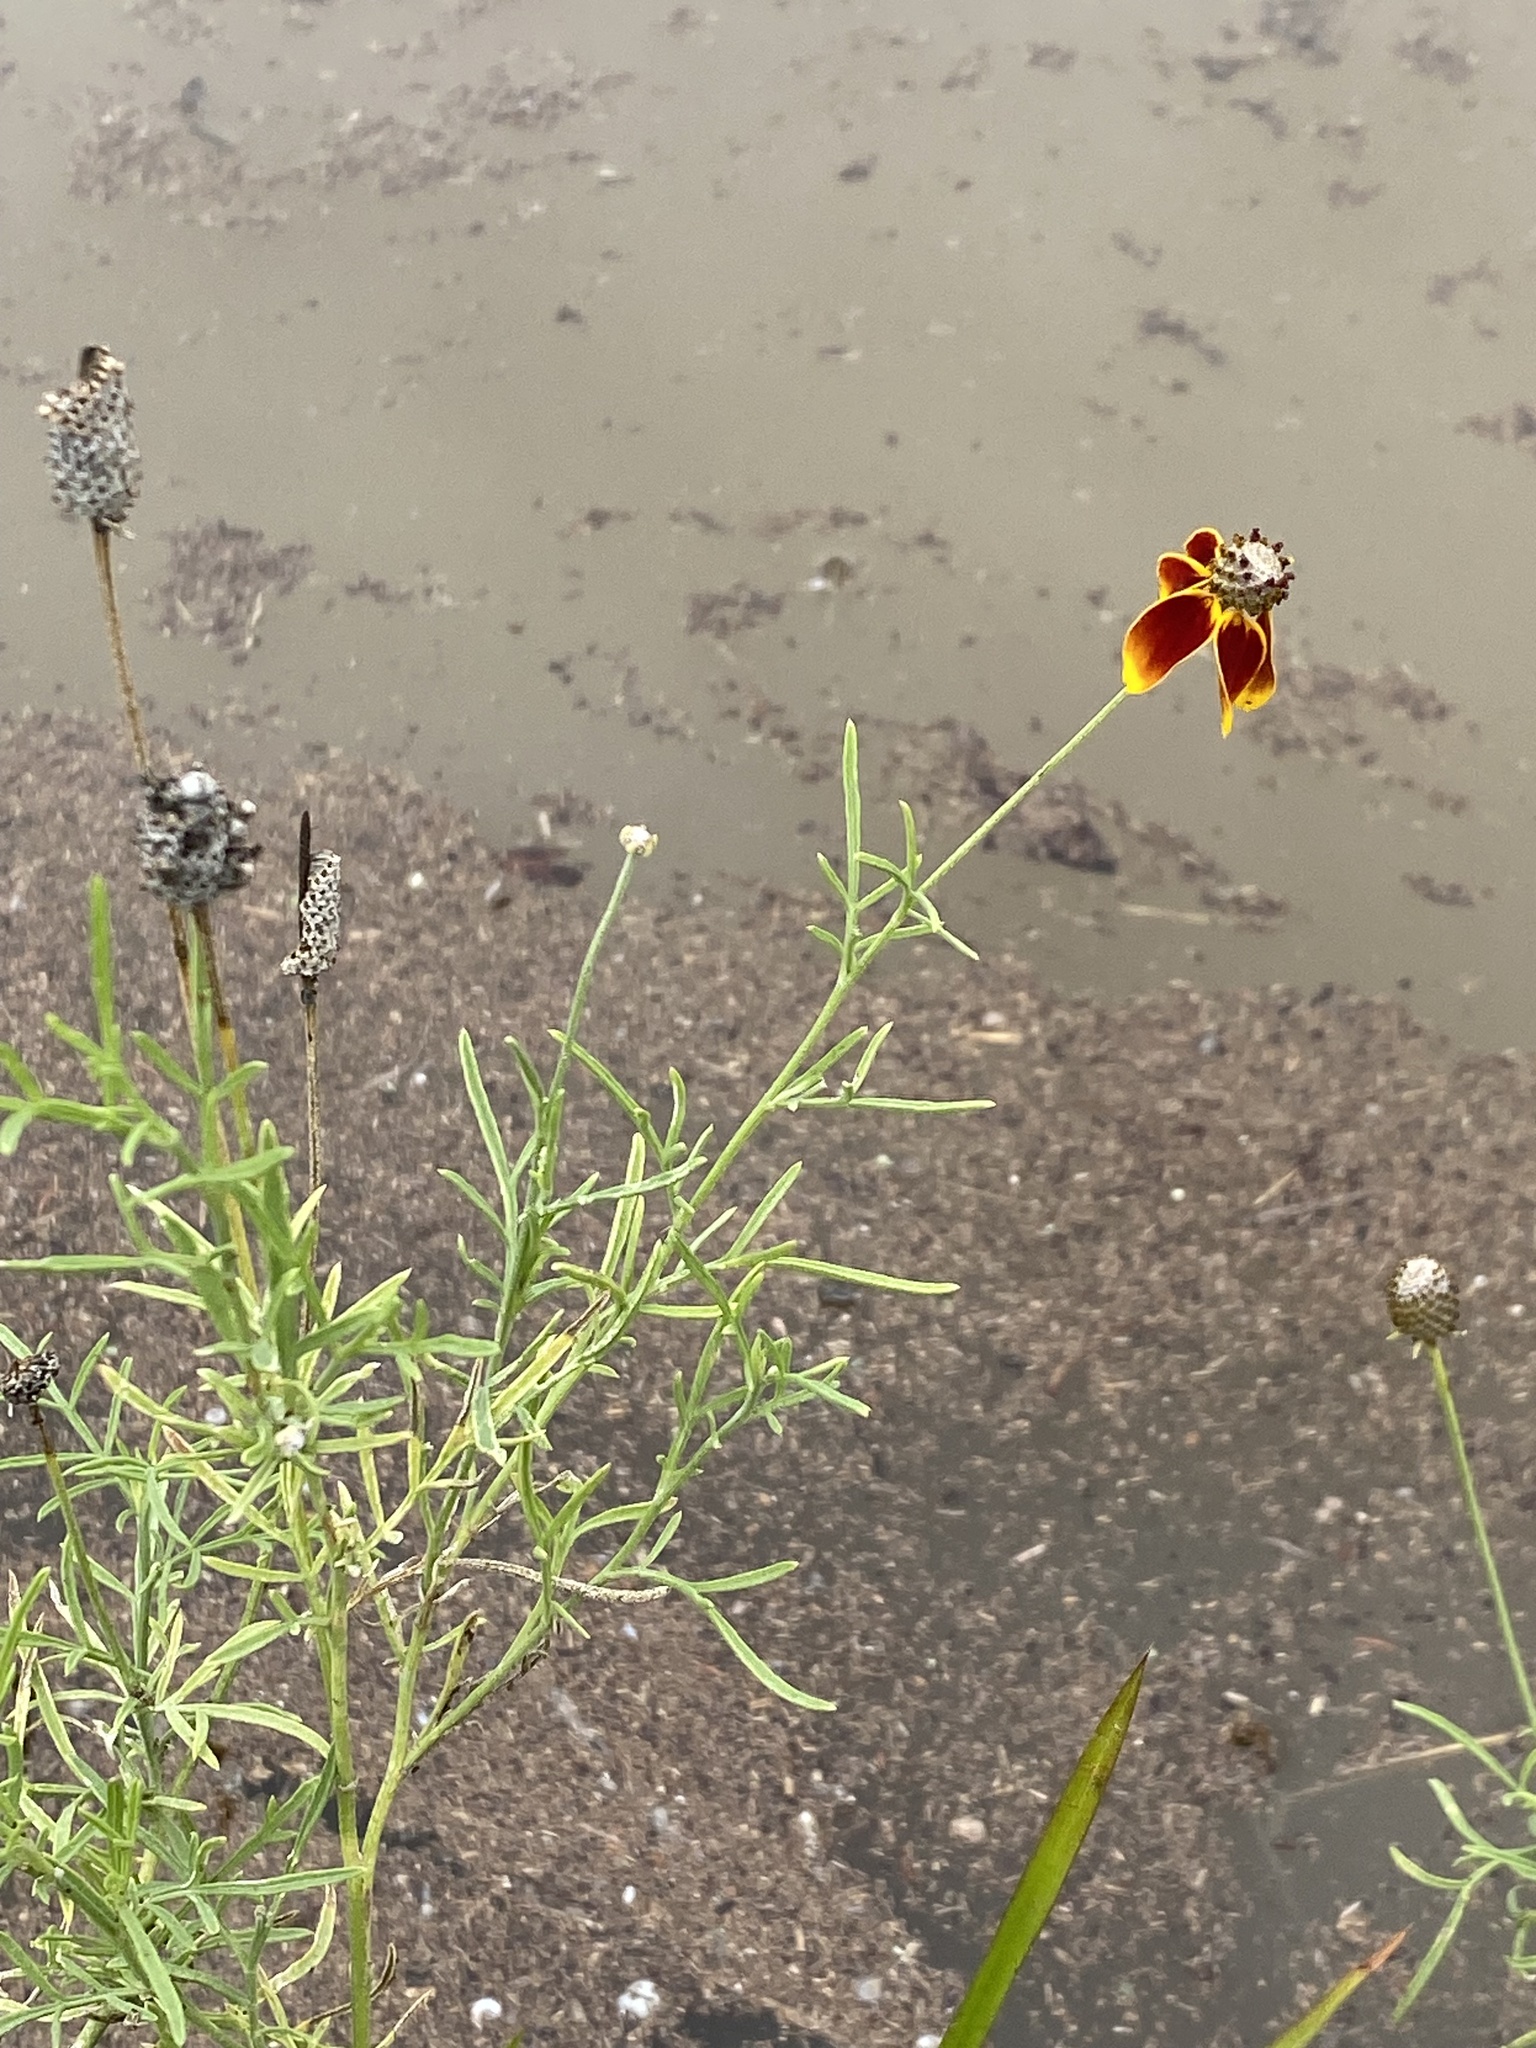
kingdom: Plantae
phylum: Tracheophyta
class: Magnoliopsida
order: Asterales
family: Asteraceae
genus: Ratibida
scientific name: Ratibida columnifera
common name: Prairie coneflower
